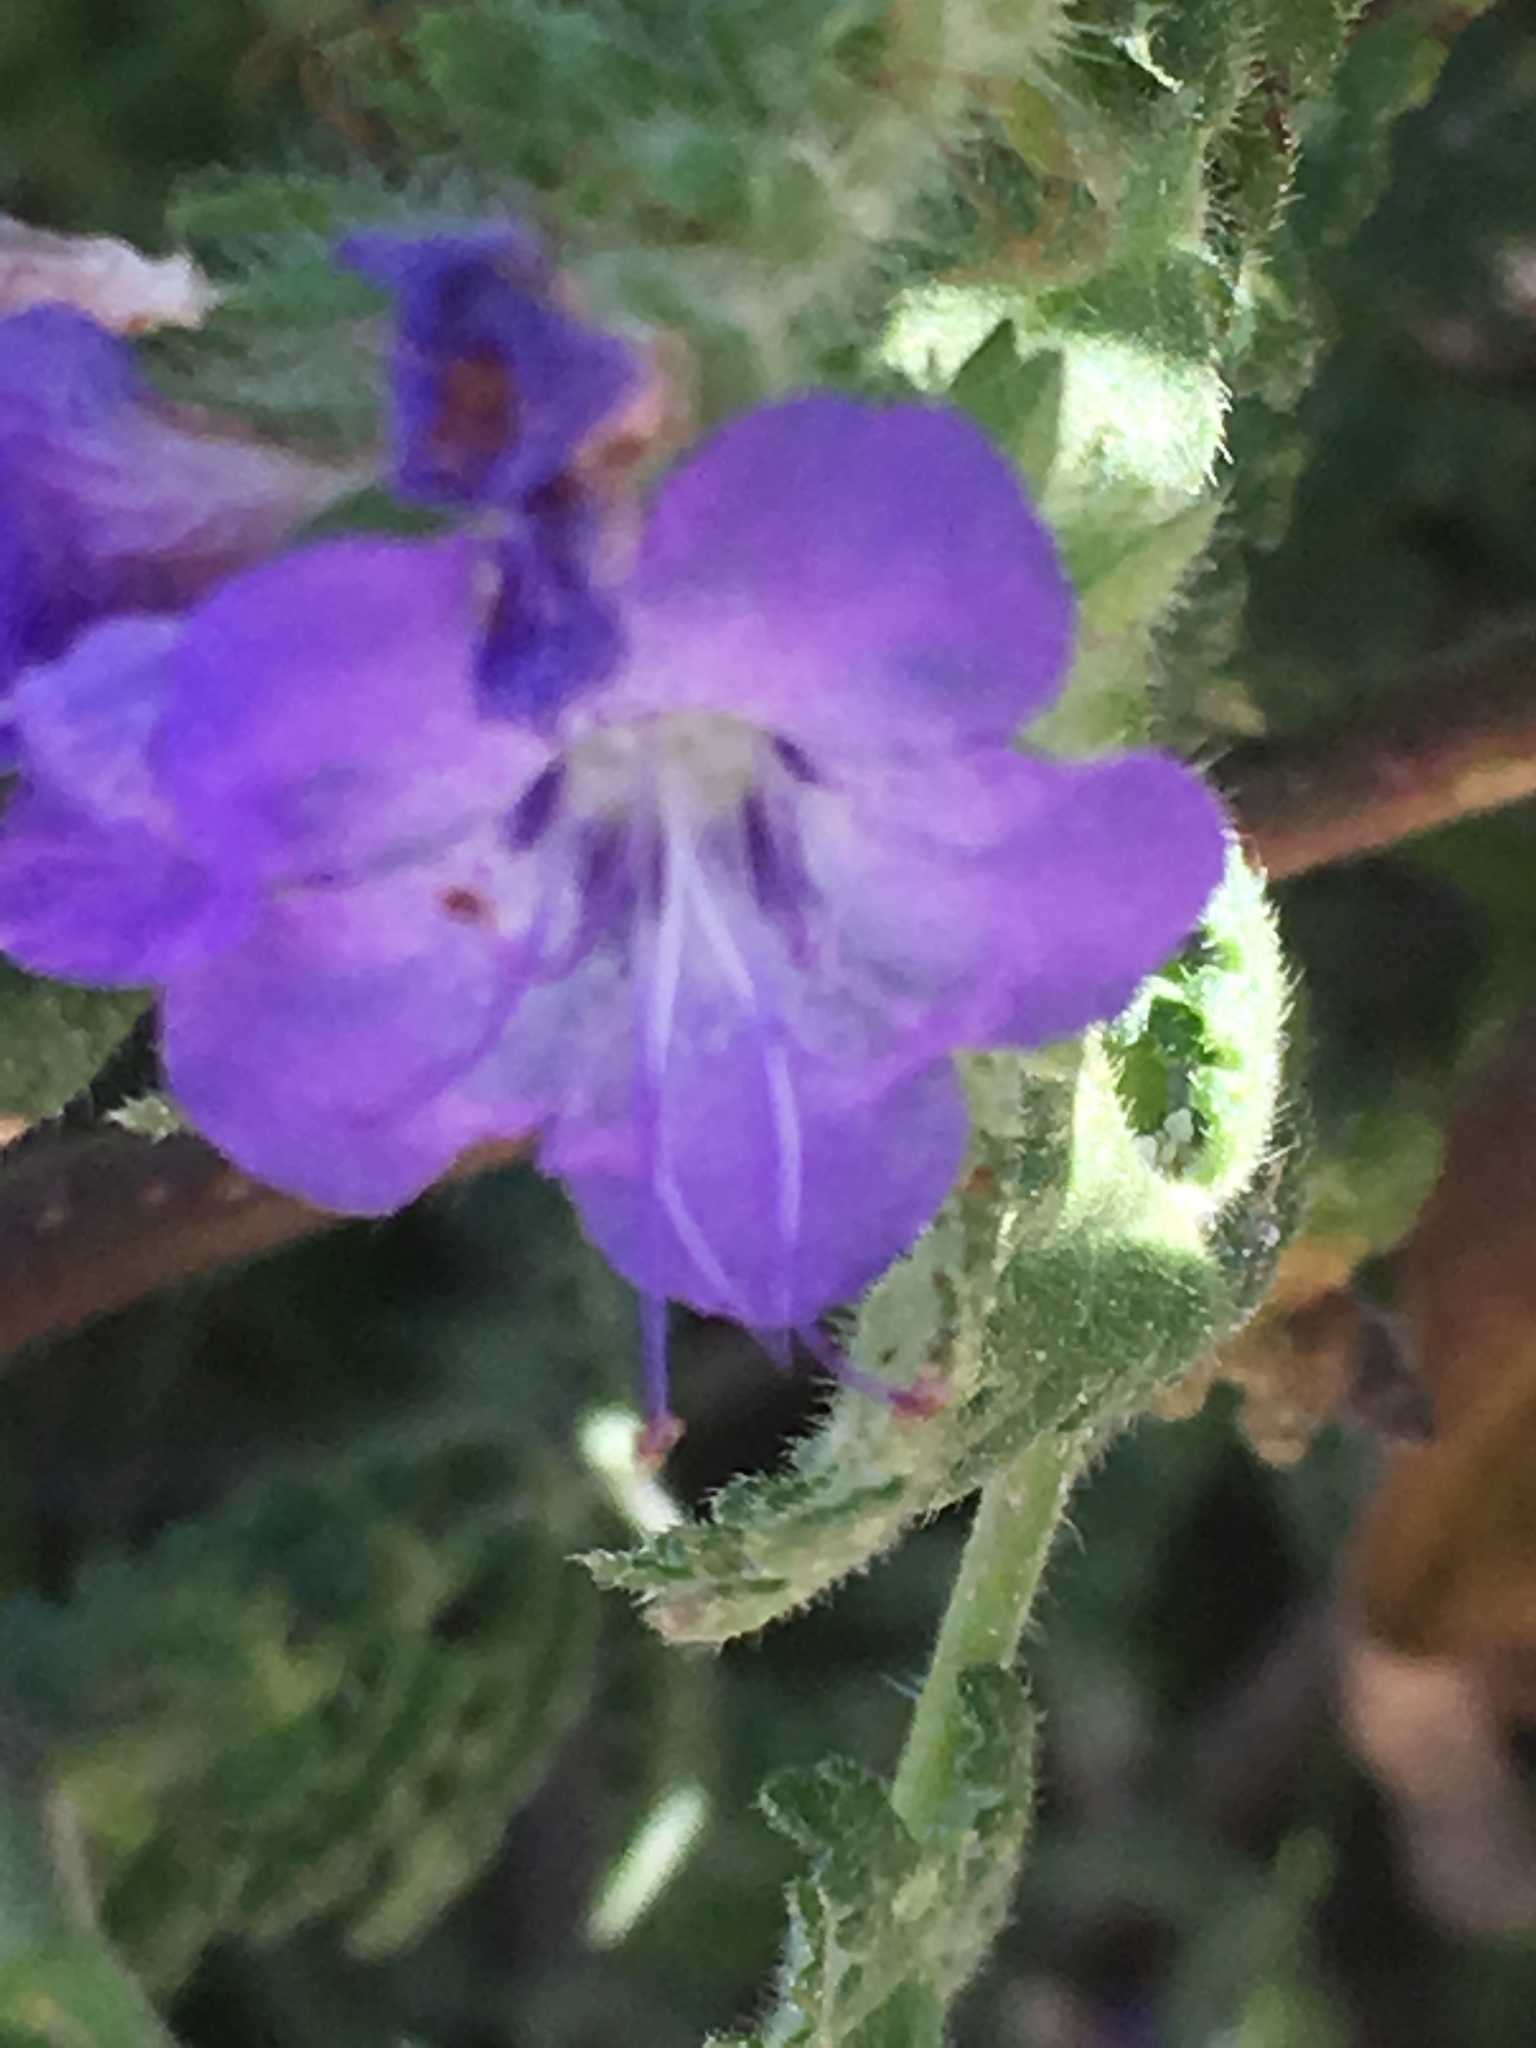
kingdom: Plantae
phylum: Tracheophyta
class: Magnoliopsida
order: Boraginales
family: Hydrophyllaceae
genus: Phacelia
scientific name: Phacelia distans
